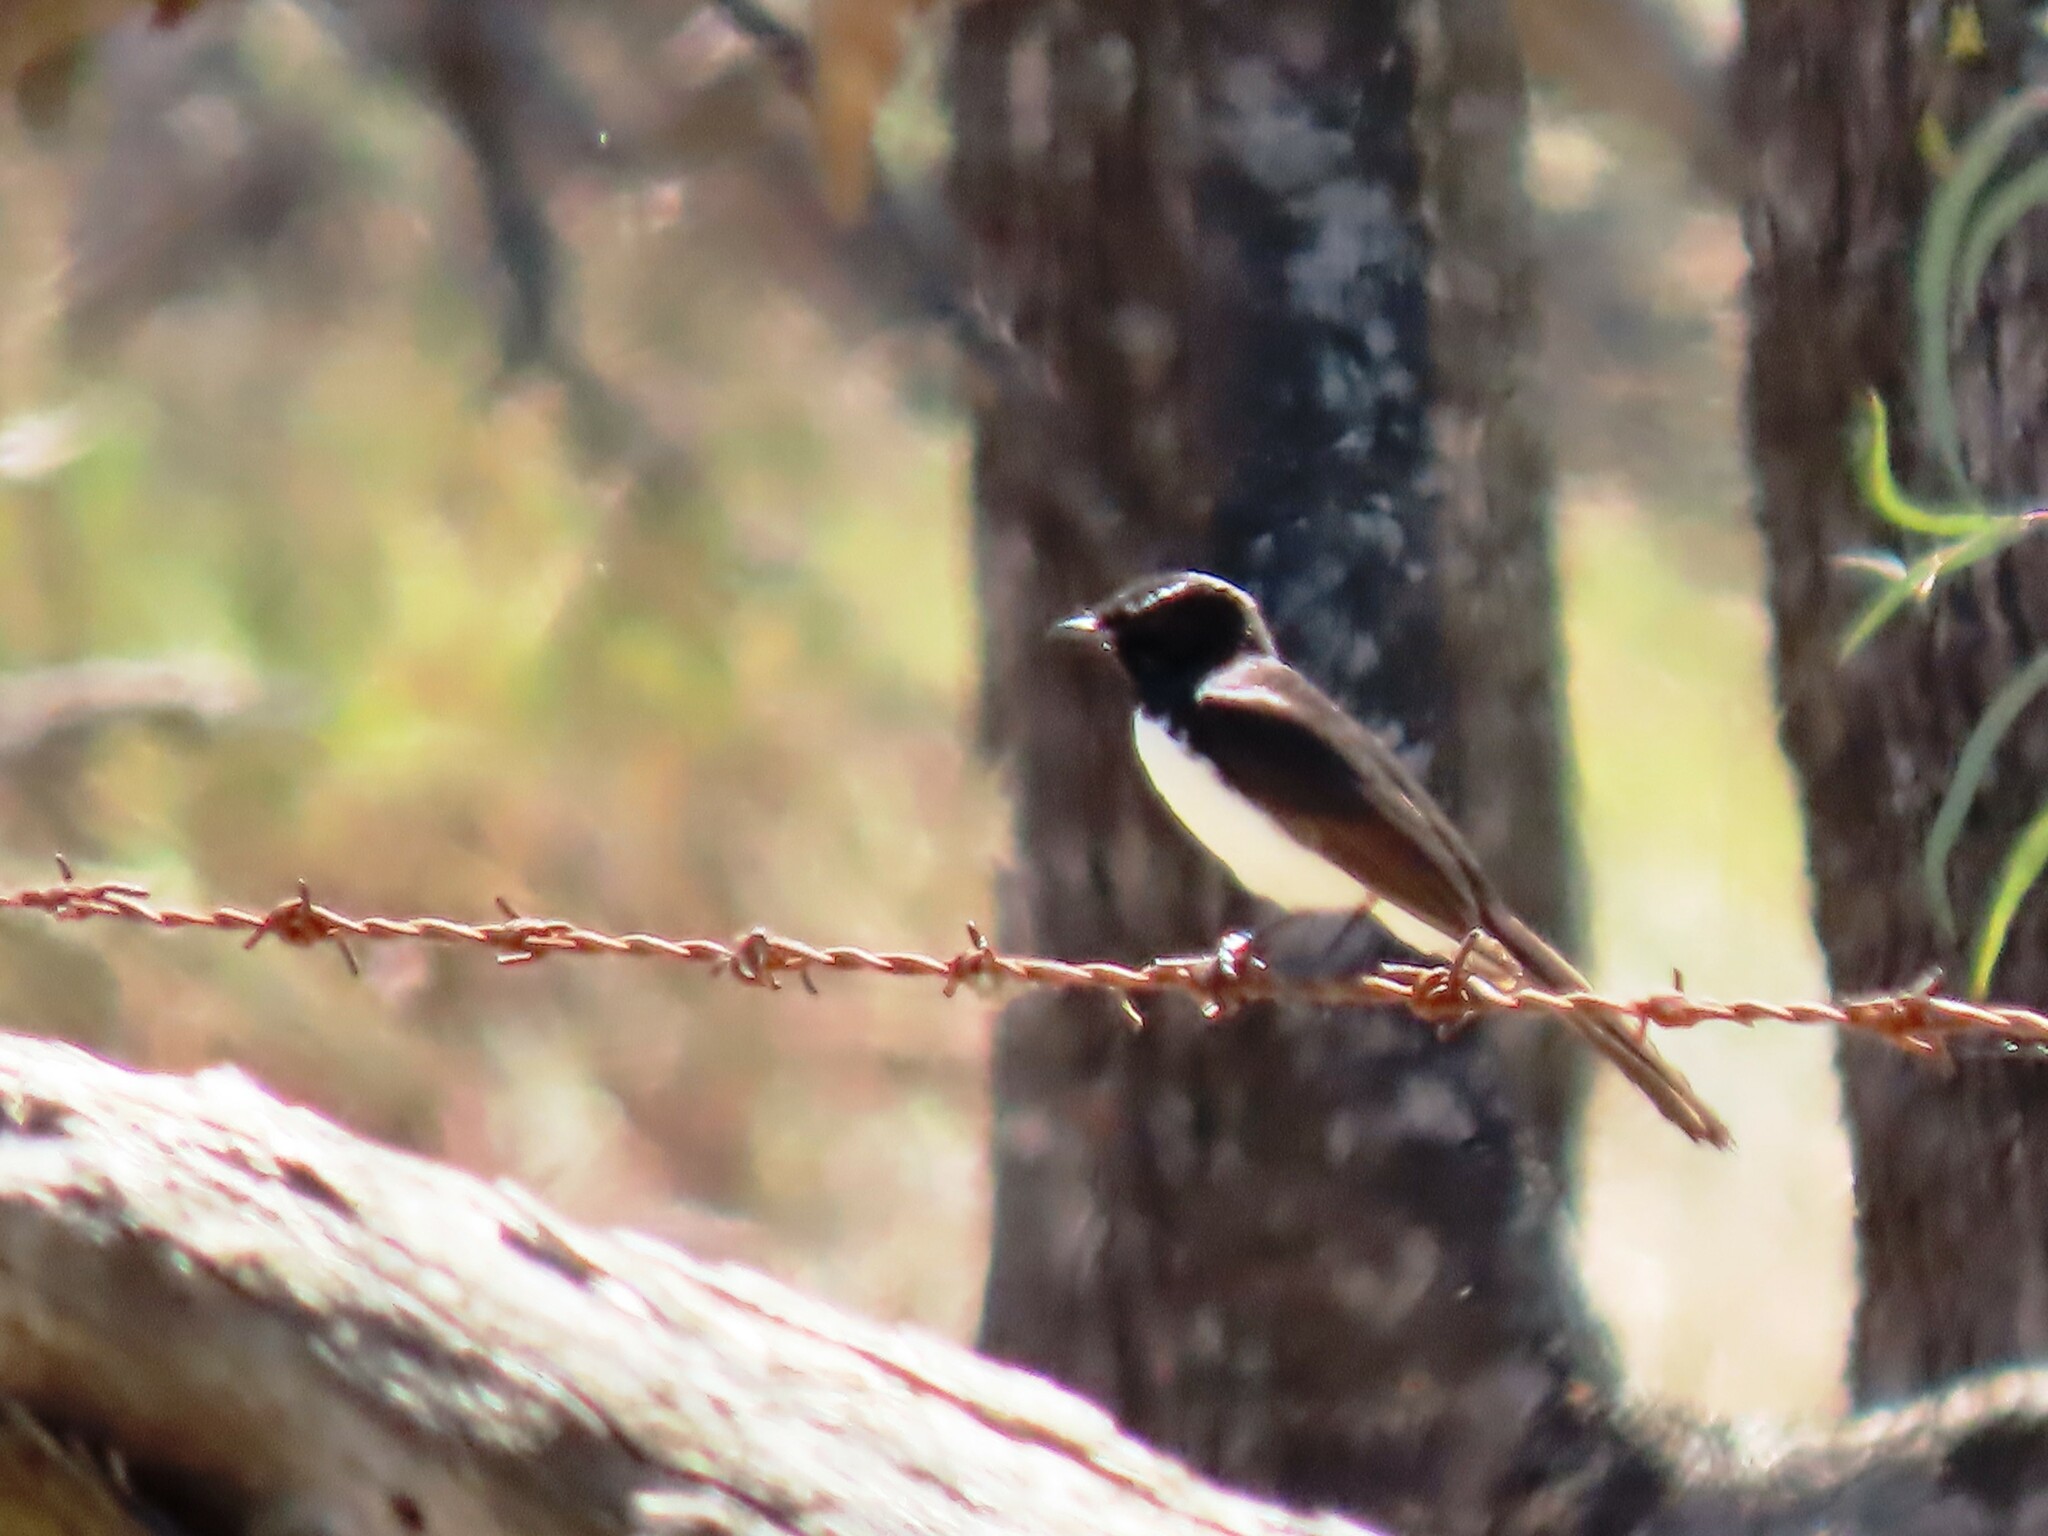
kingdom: Animalia
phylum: Chordata
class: Aves
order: Passeriformes
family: Rhipiduridae
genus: Rhipidura
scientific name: Rhipidura leucophrys
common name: Willie wagtail
